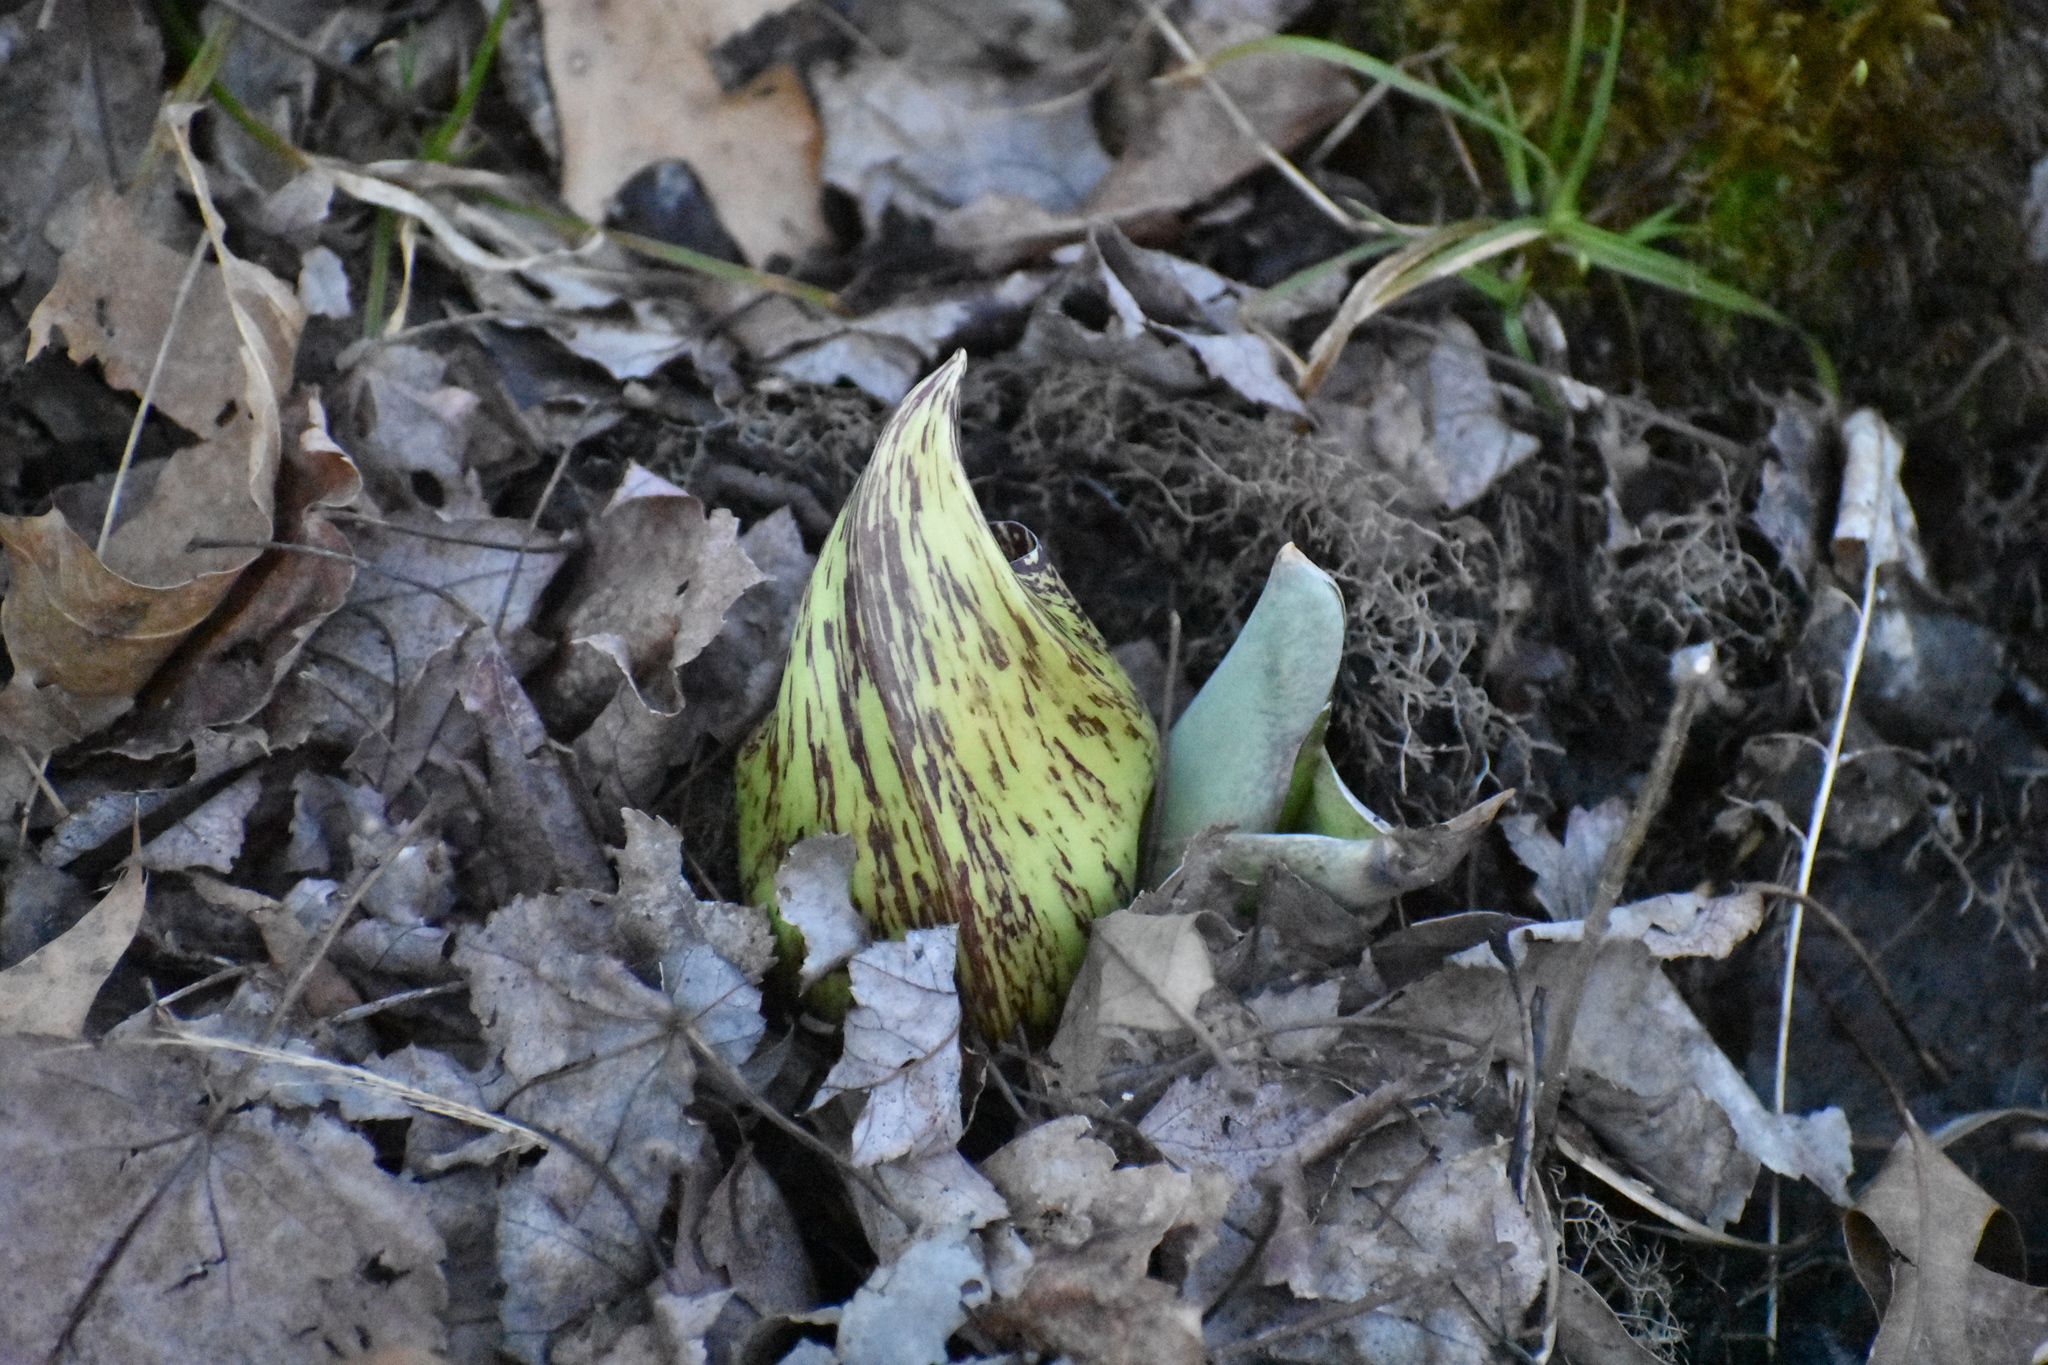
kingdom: Plantae
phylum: Tracheophyta
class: Liliopsida
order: Alismatales
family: Araceae
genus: Symplocarpus
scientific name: Symplocarpus foetidus
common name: Eastern skunk cabbage
